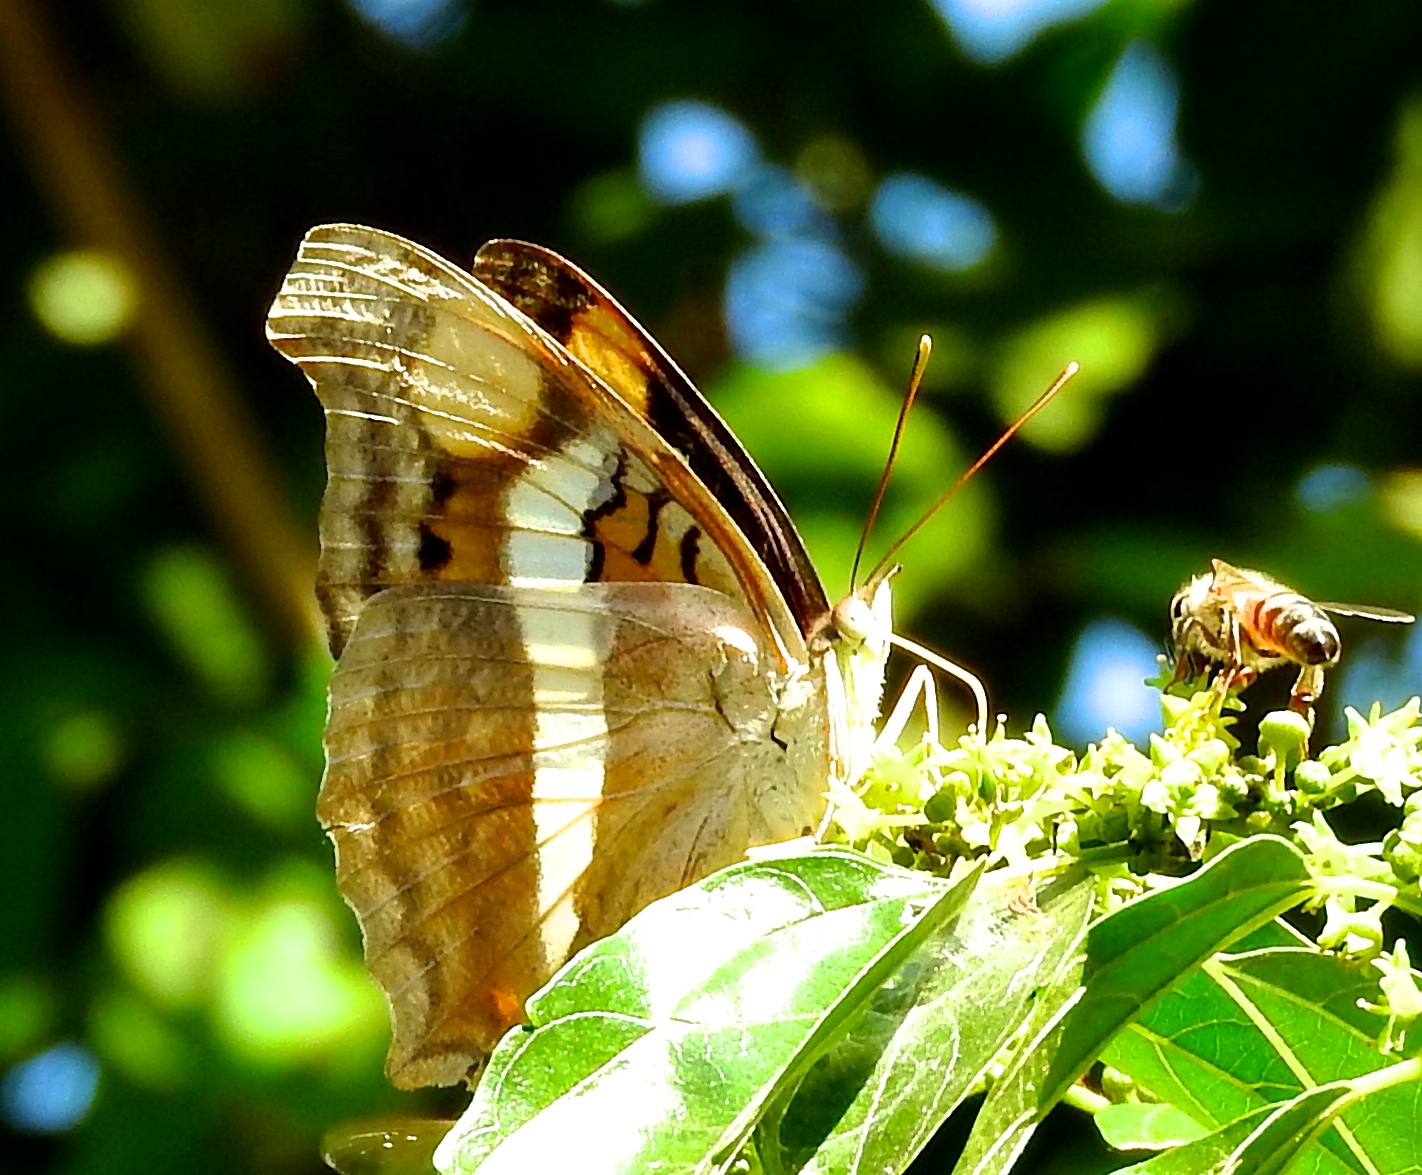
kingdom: Animalia
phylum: Arthropoda
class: Insecta
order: Lepidoptera
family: Nymphalidae
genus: Doxocopa
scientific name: Doxocopa laure
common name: Silver emperor
